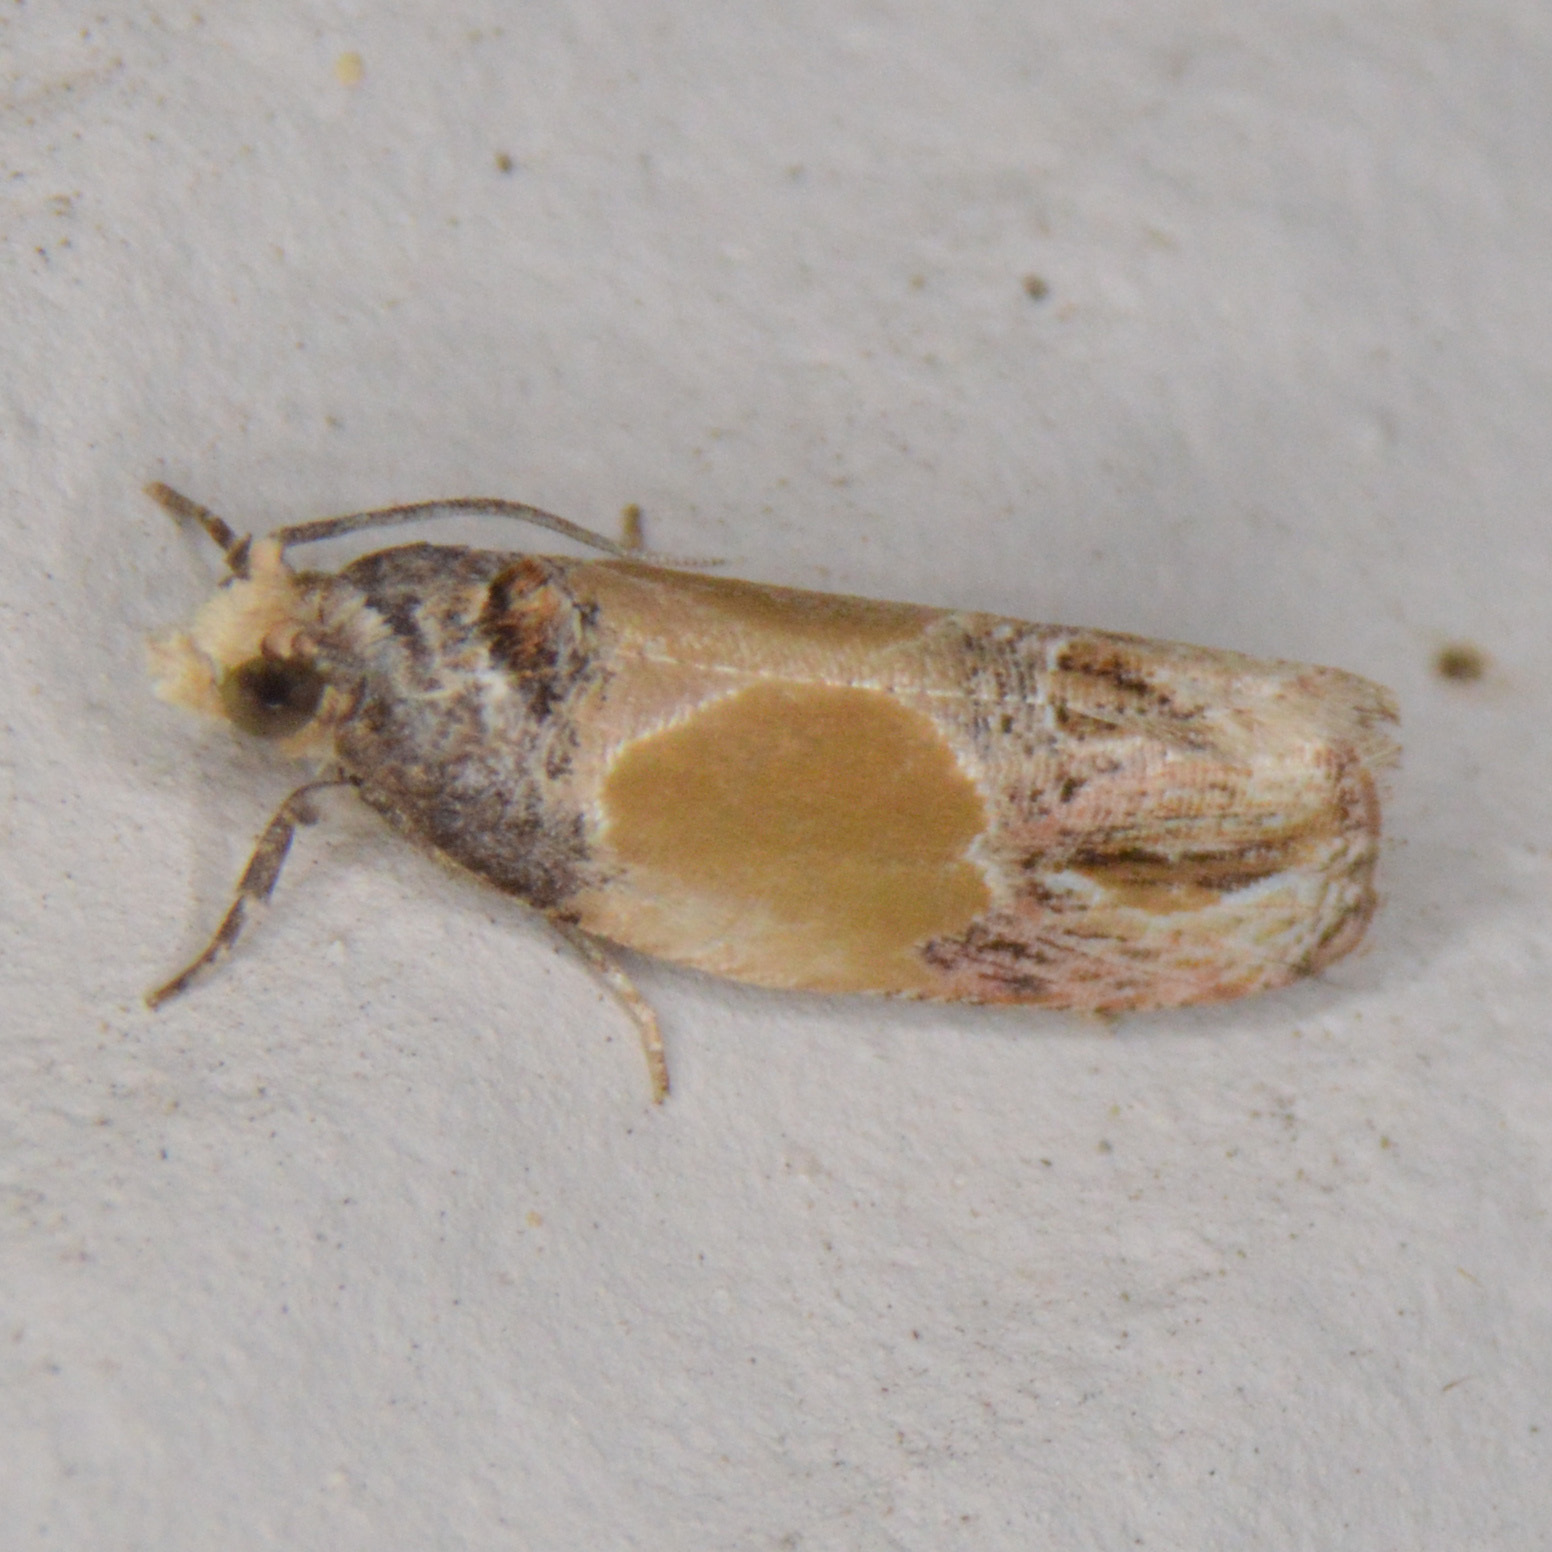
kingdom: Animalia
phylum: Arthropoda
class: Insecta
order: Lepidoptera
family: Tortricidae
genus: Eumarozia
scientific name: Eumarozia malachitana
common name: Sculptured moth
